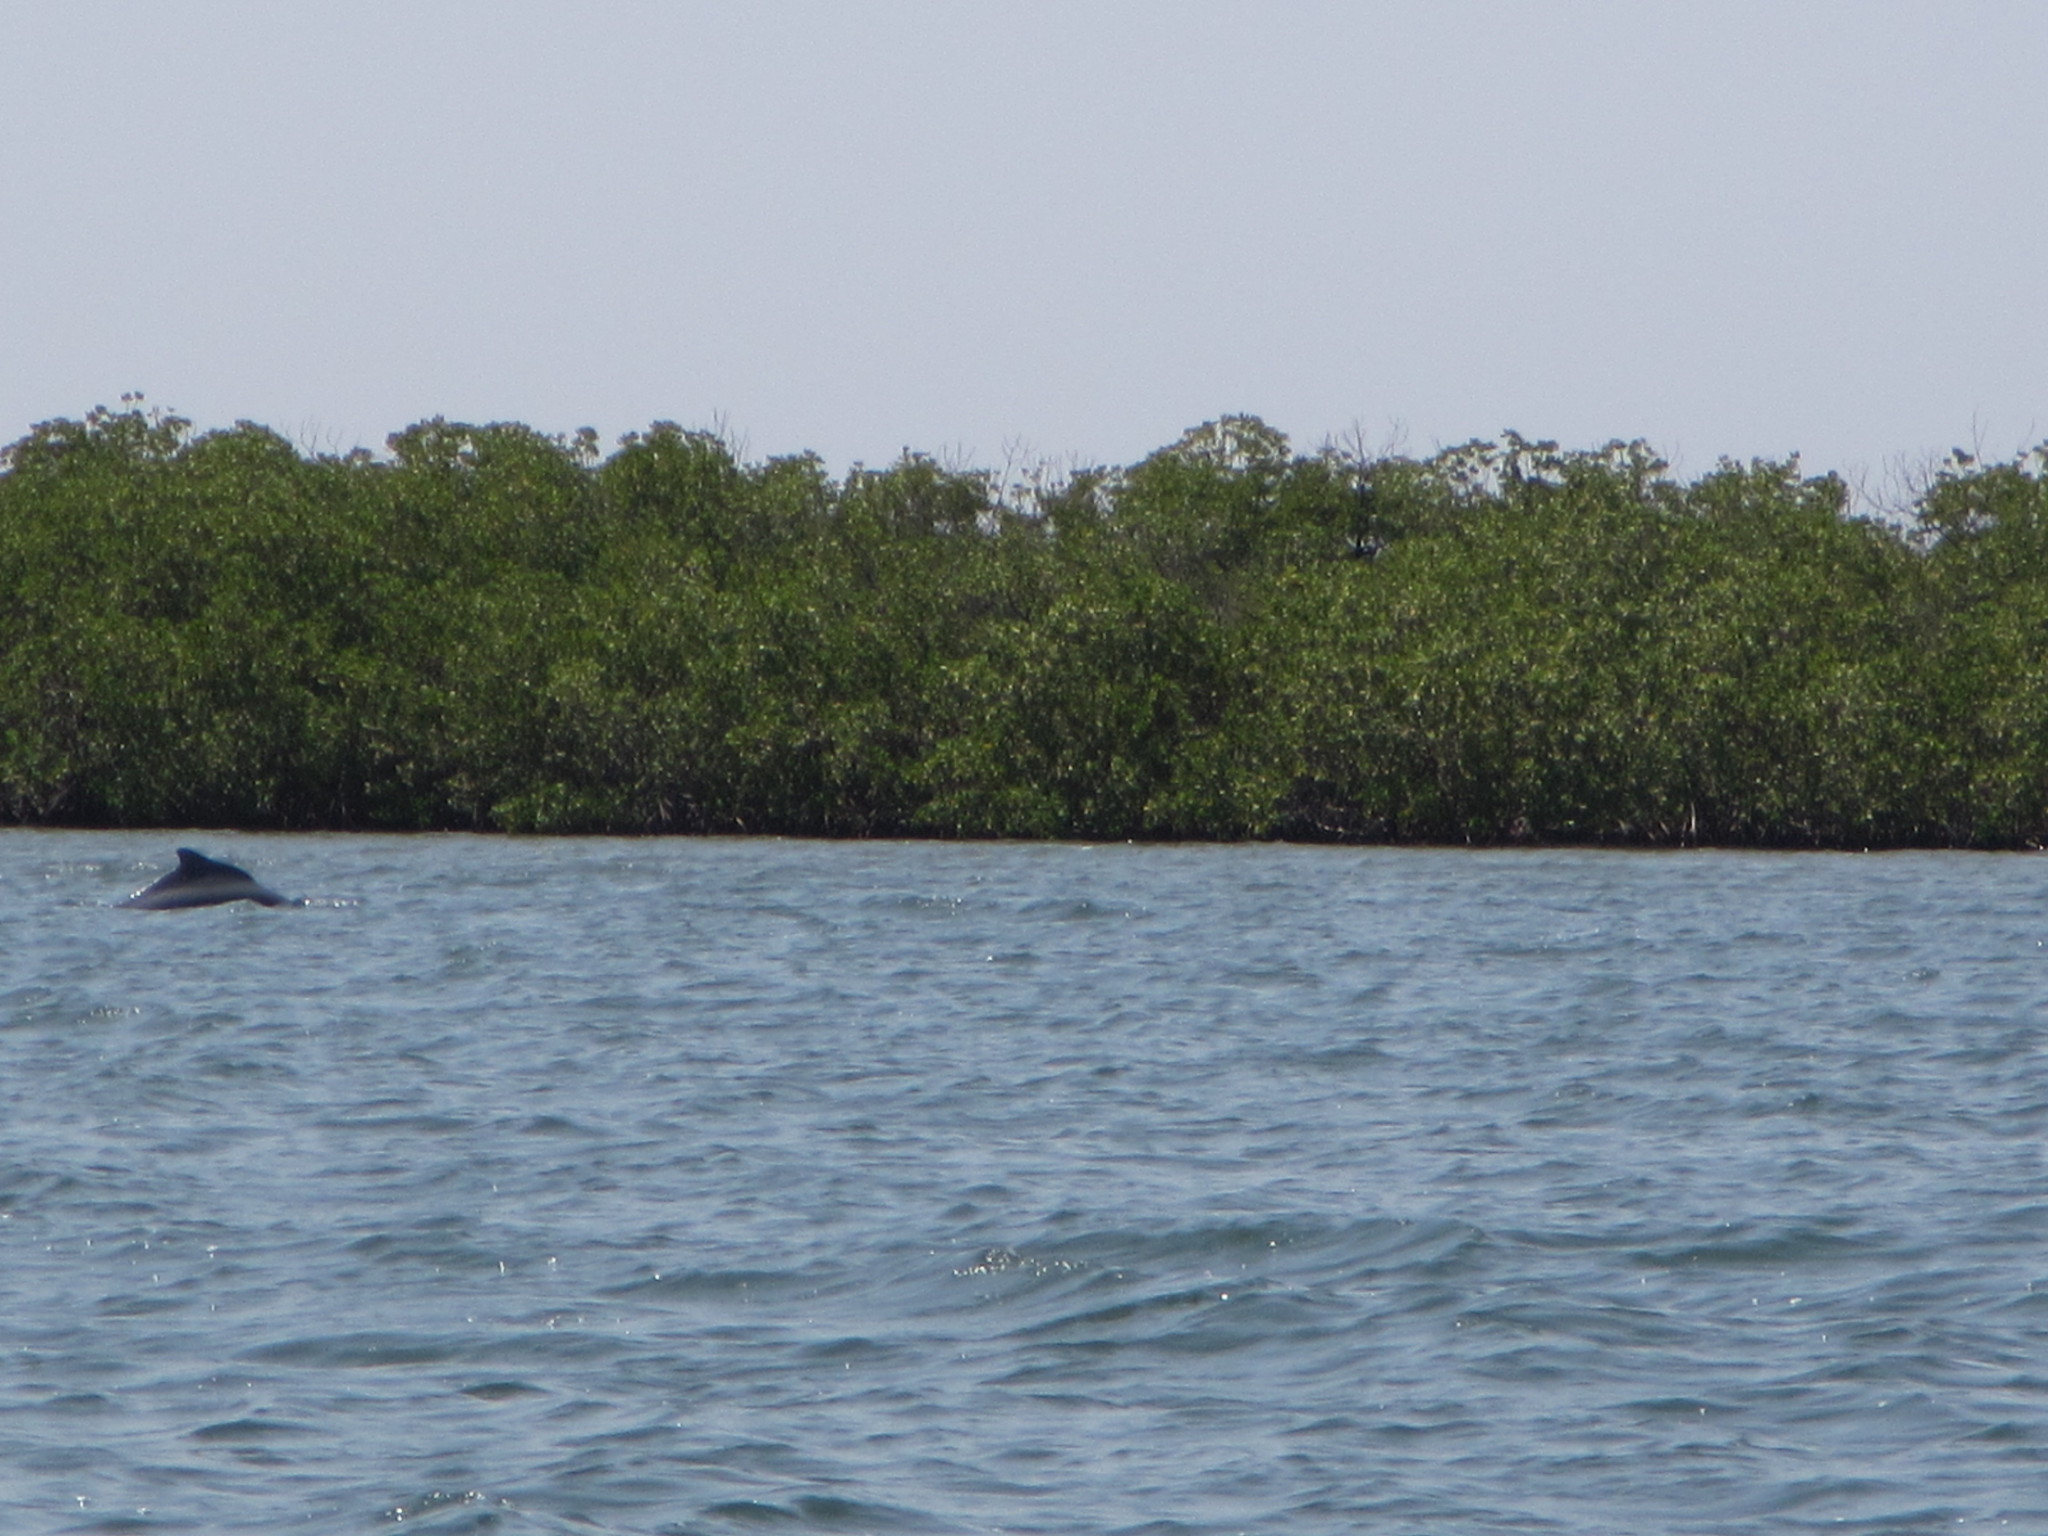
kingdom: Animalia
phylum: Chordata
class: Mammalia
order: Cetacea
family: Delphinidae
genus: Sousa
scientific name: Sousa teuszii
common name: Atlantic humpbacked dolphin
